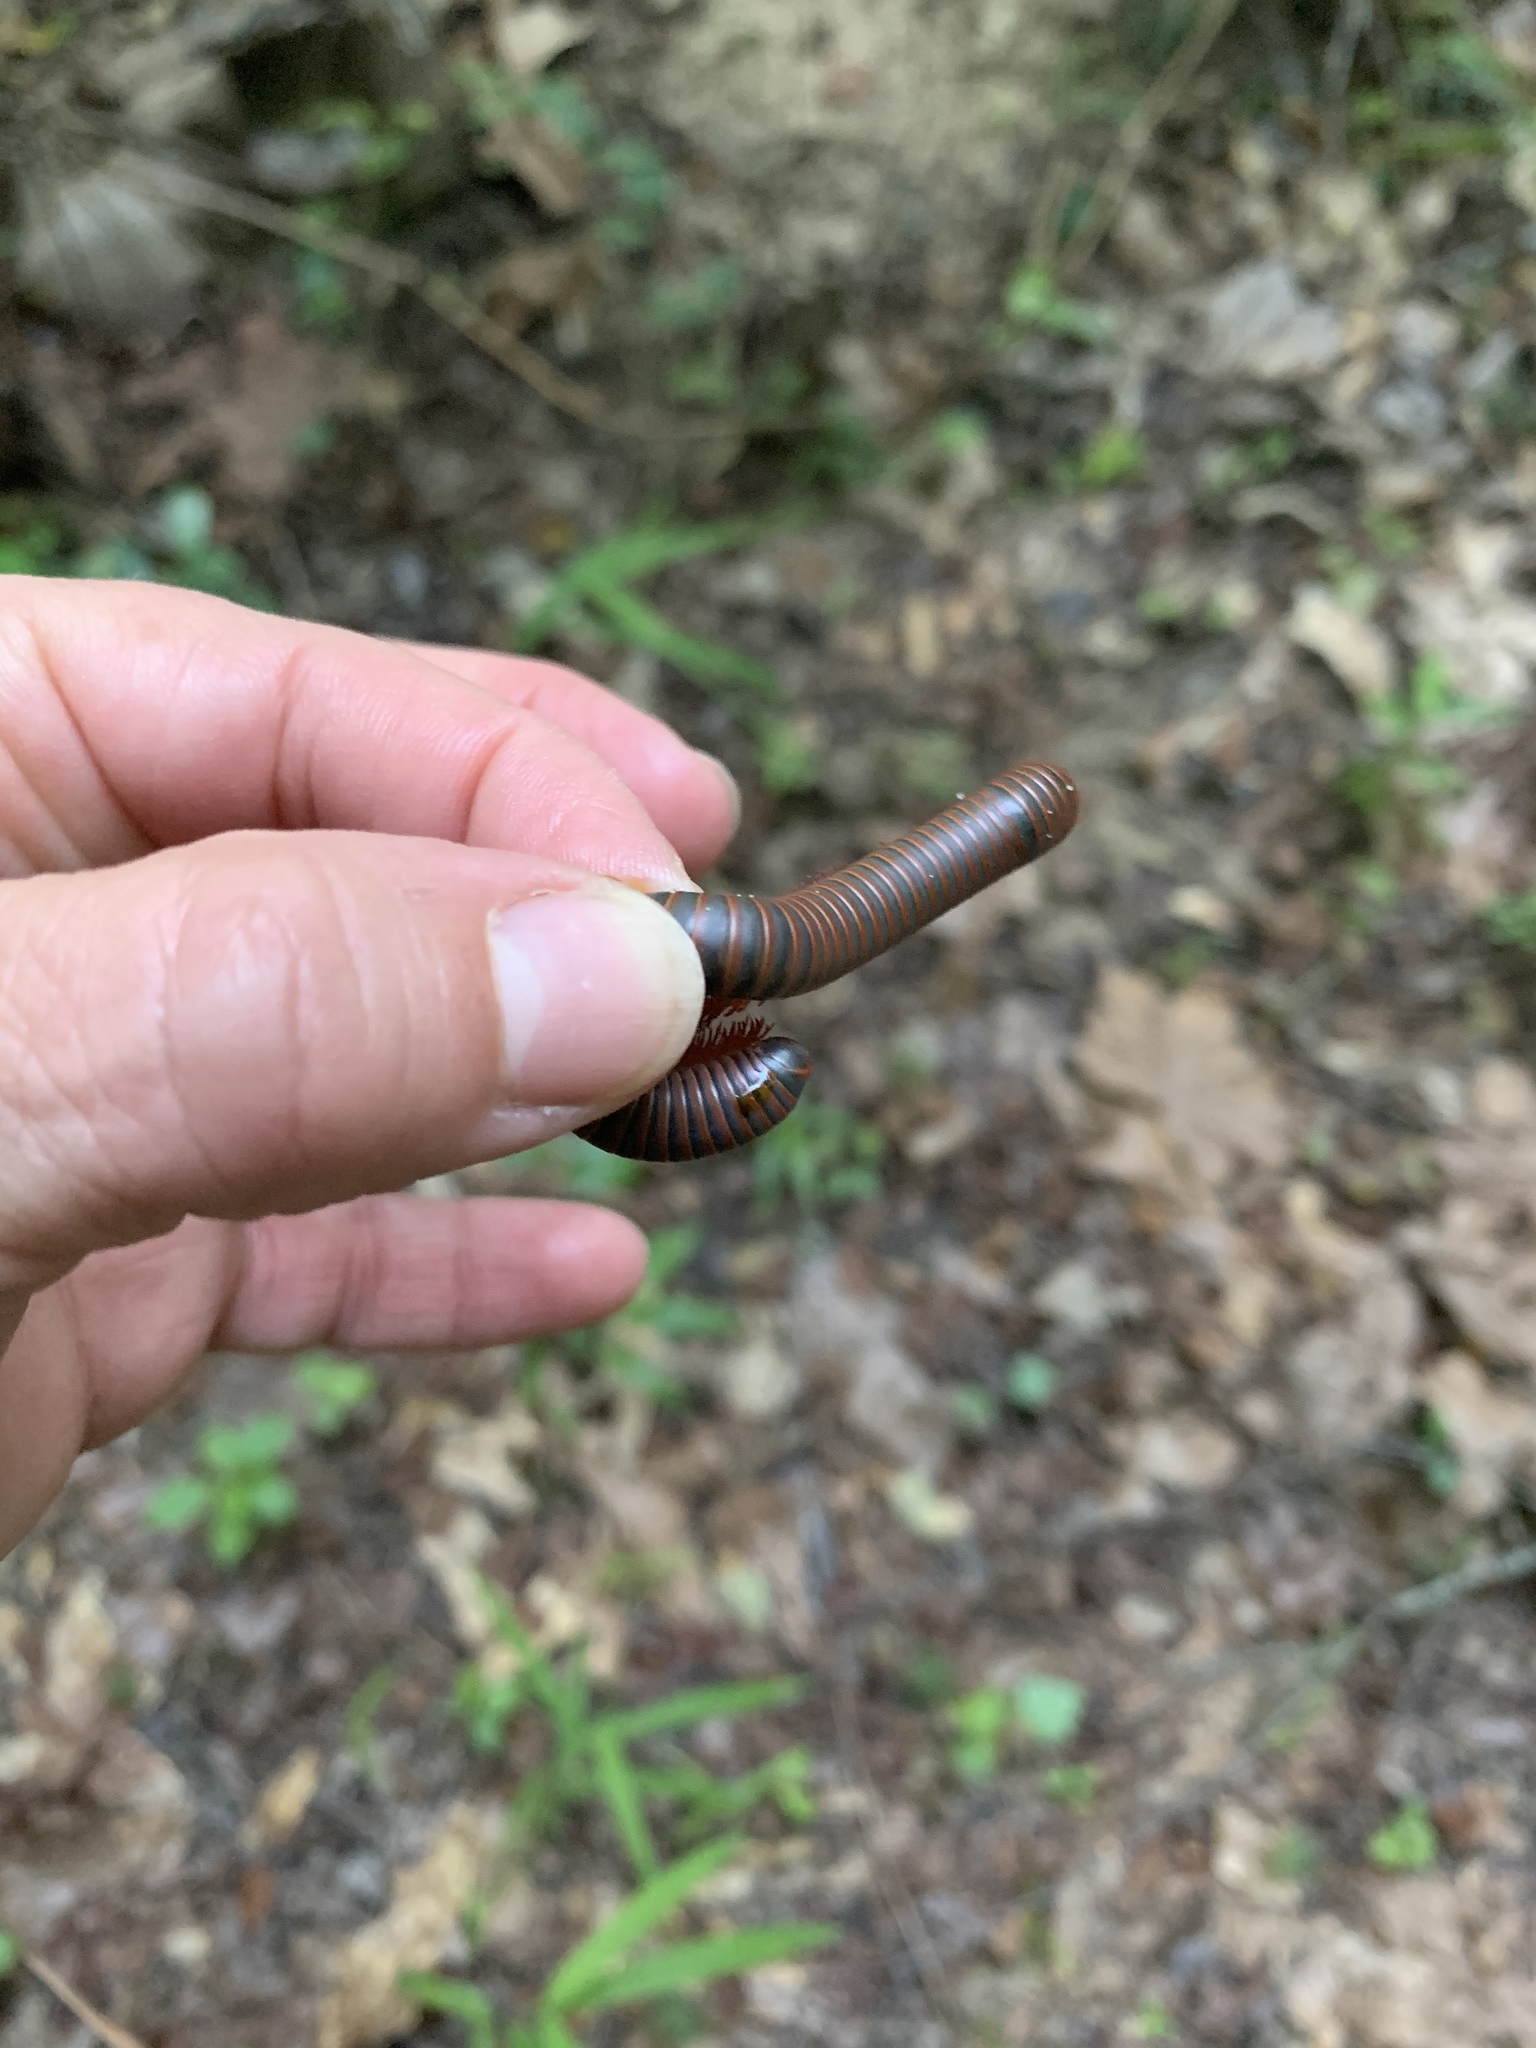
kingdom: Animalia
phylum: Arthropoda
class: Diplopoda
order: Spirobolida
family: Spirobolidae
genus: Narceus
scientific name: Narceus
